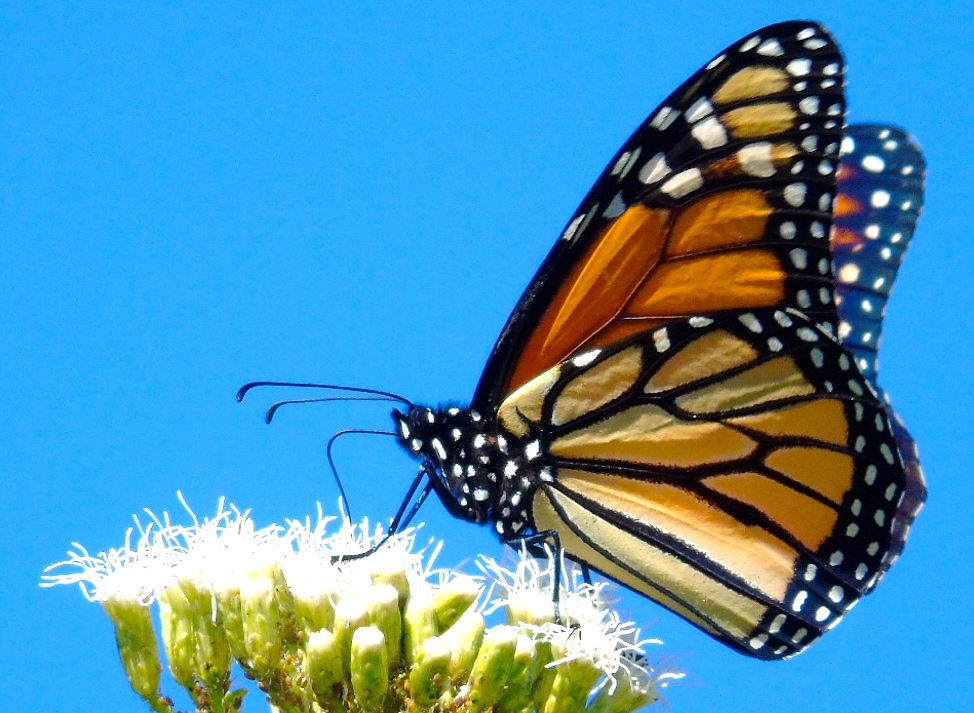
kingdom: Animalia
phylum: Arthropoda
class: Insecta
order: Lepidoptera
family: Nymphalidae
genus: Danaus
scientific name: Danaus plexippus
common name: Monarch
